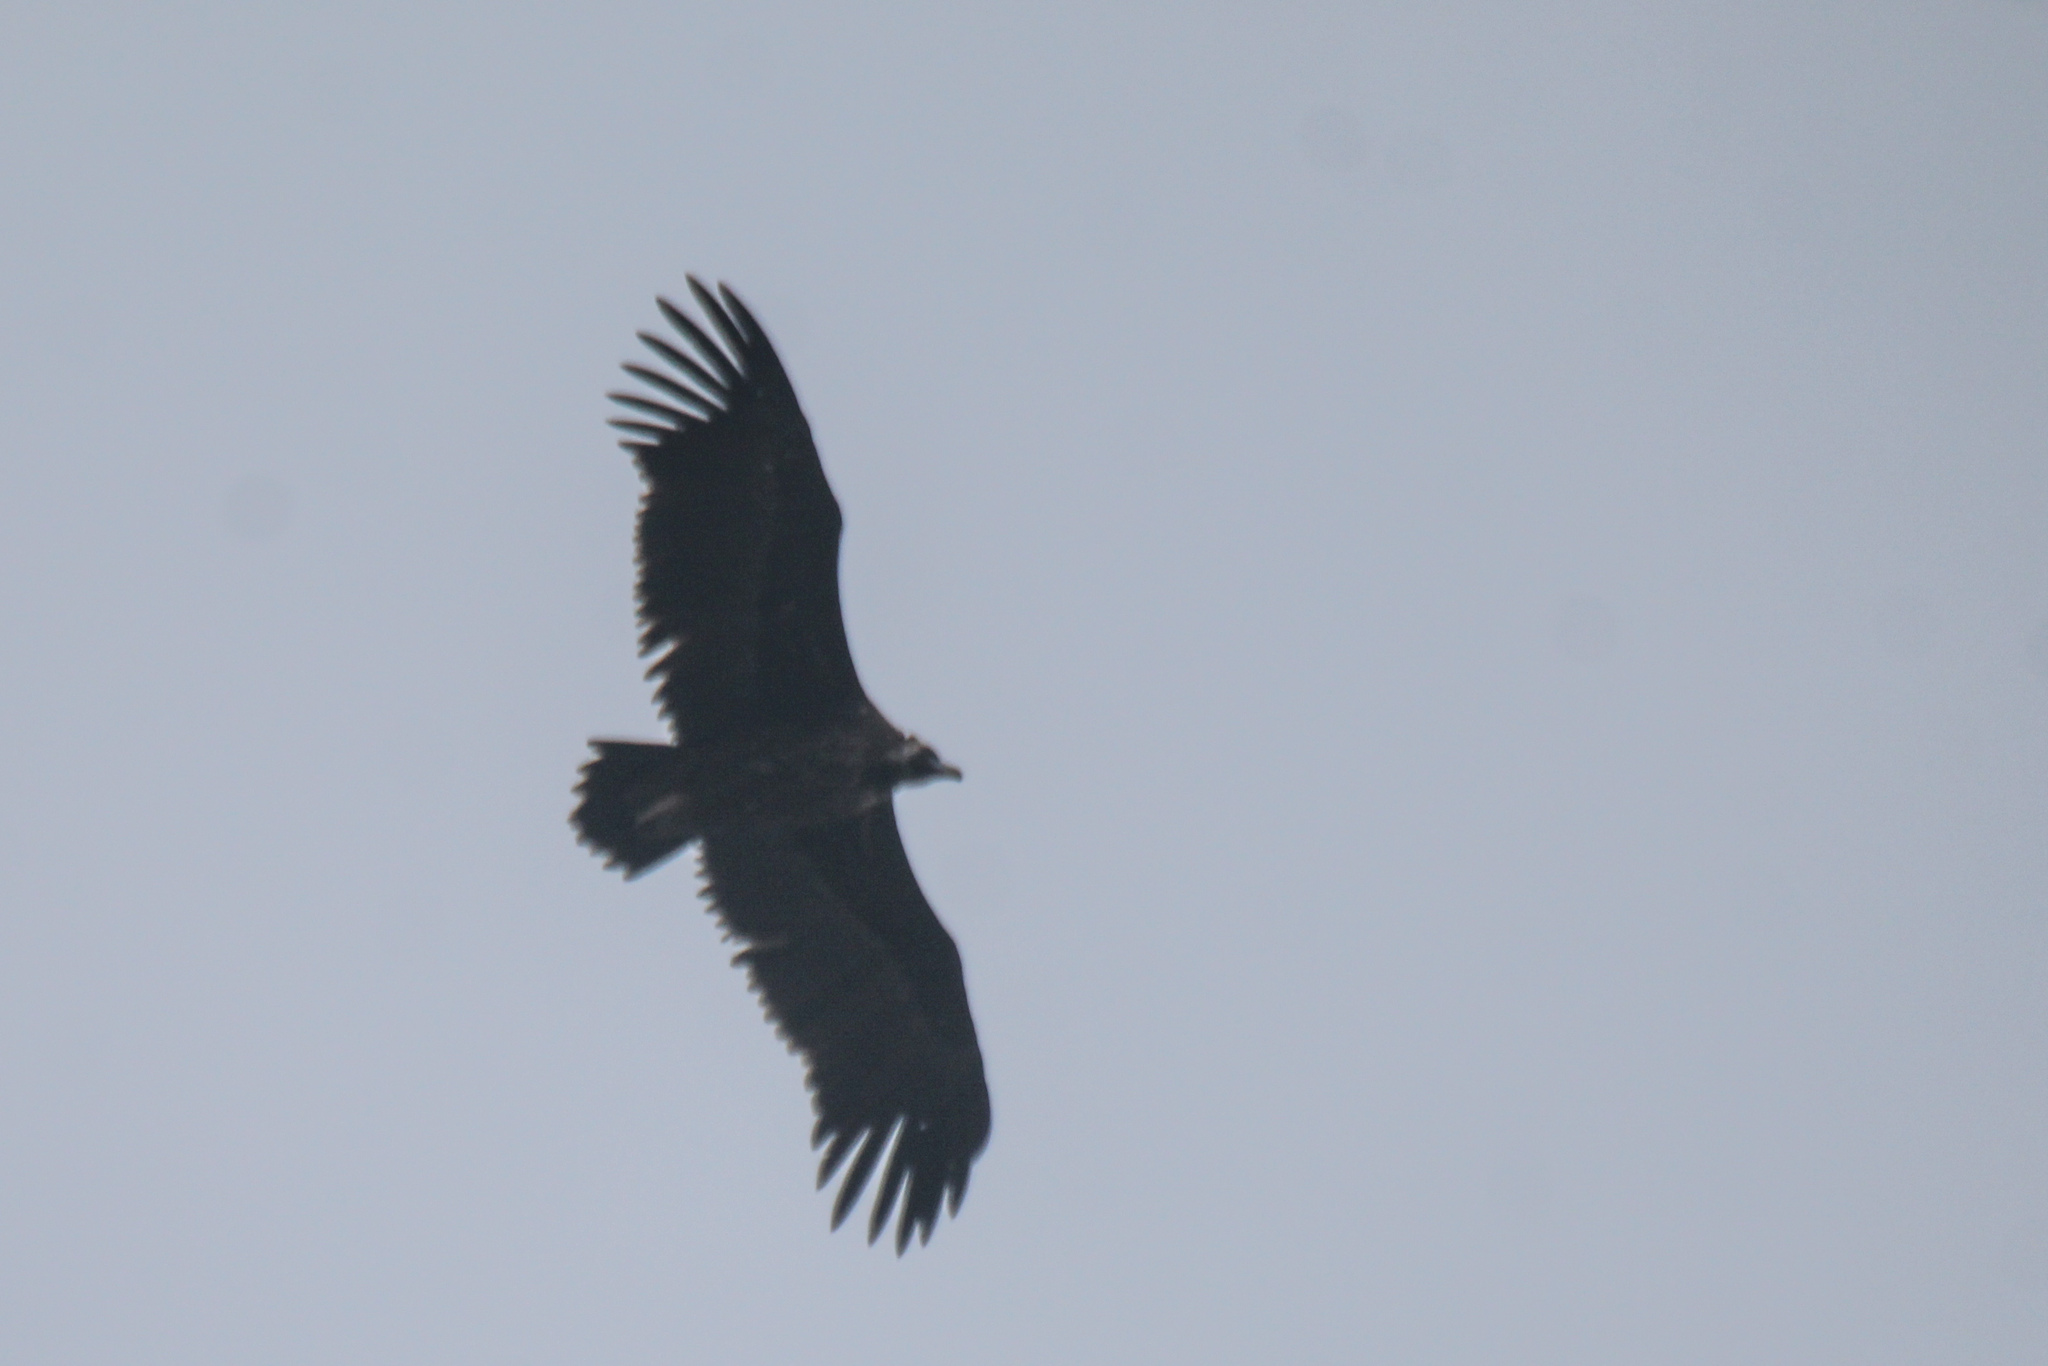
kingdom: Animalia
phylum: Chordata
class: Aves
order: Accipitriformes
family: Accipitridae
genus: Aegypius
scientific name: Aegypius monachus
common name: Cinereous vulture
